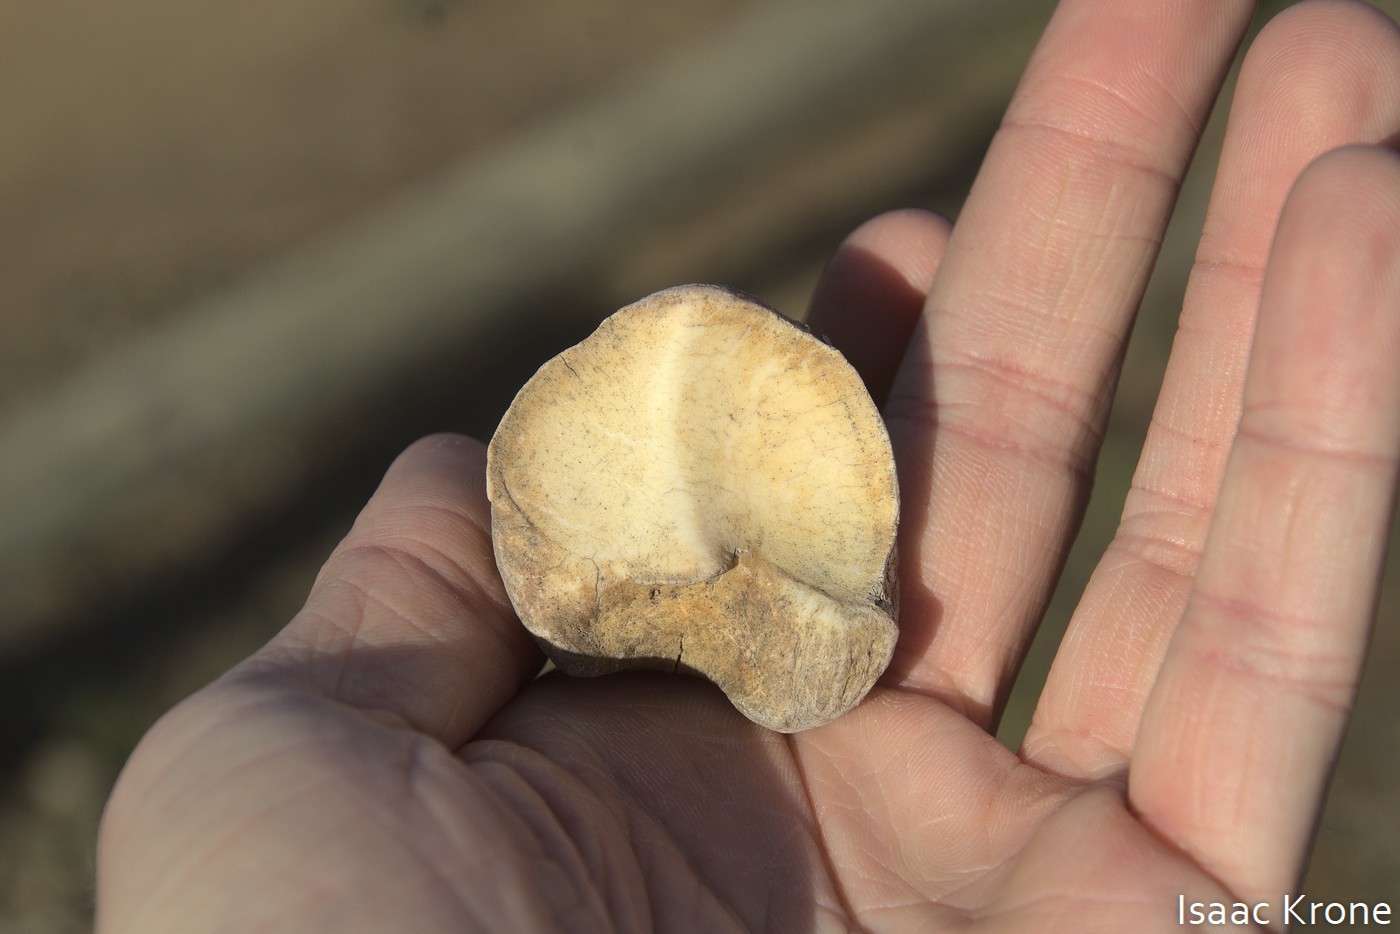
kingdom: Animalia
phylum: Chordata
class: Mammalia
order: Artiodactyla
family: Bovidae
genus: Bison
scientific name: Bison bison
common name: American bison
